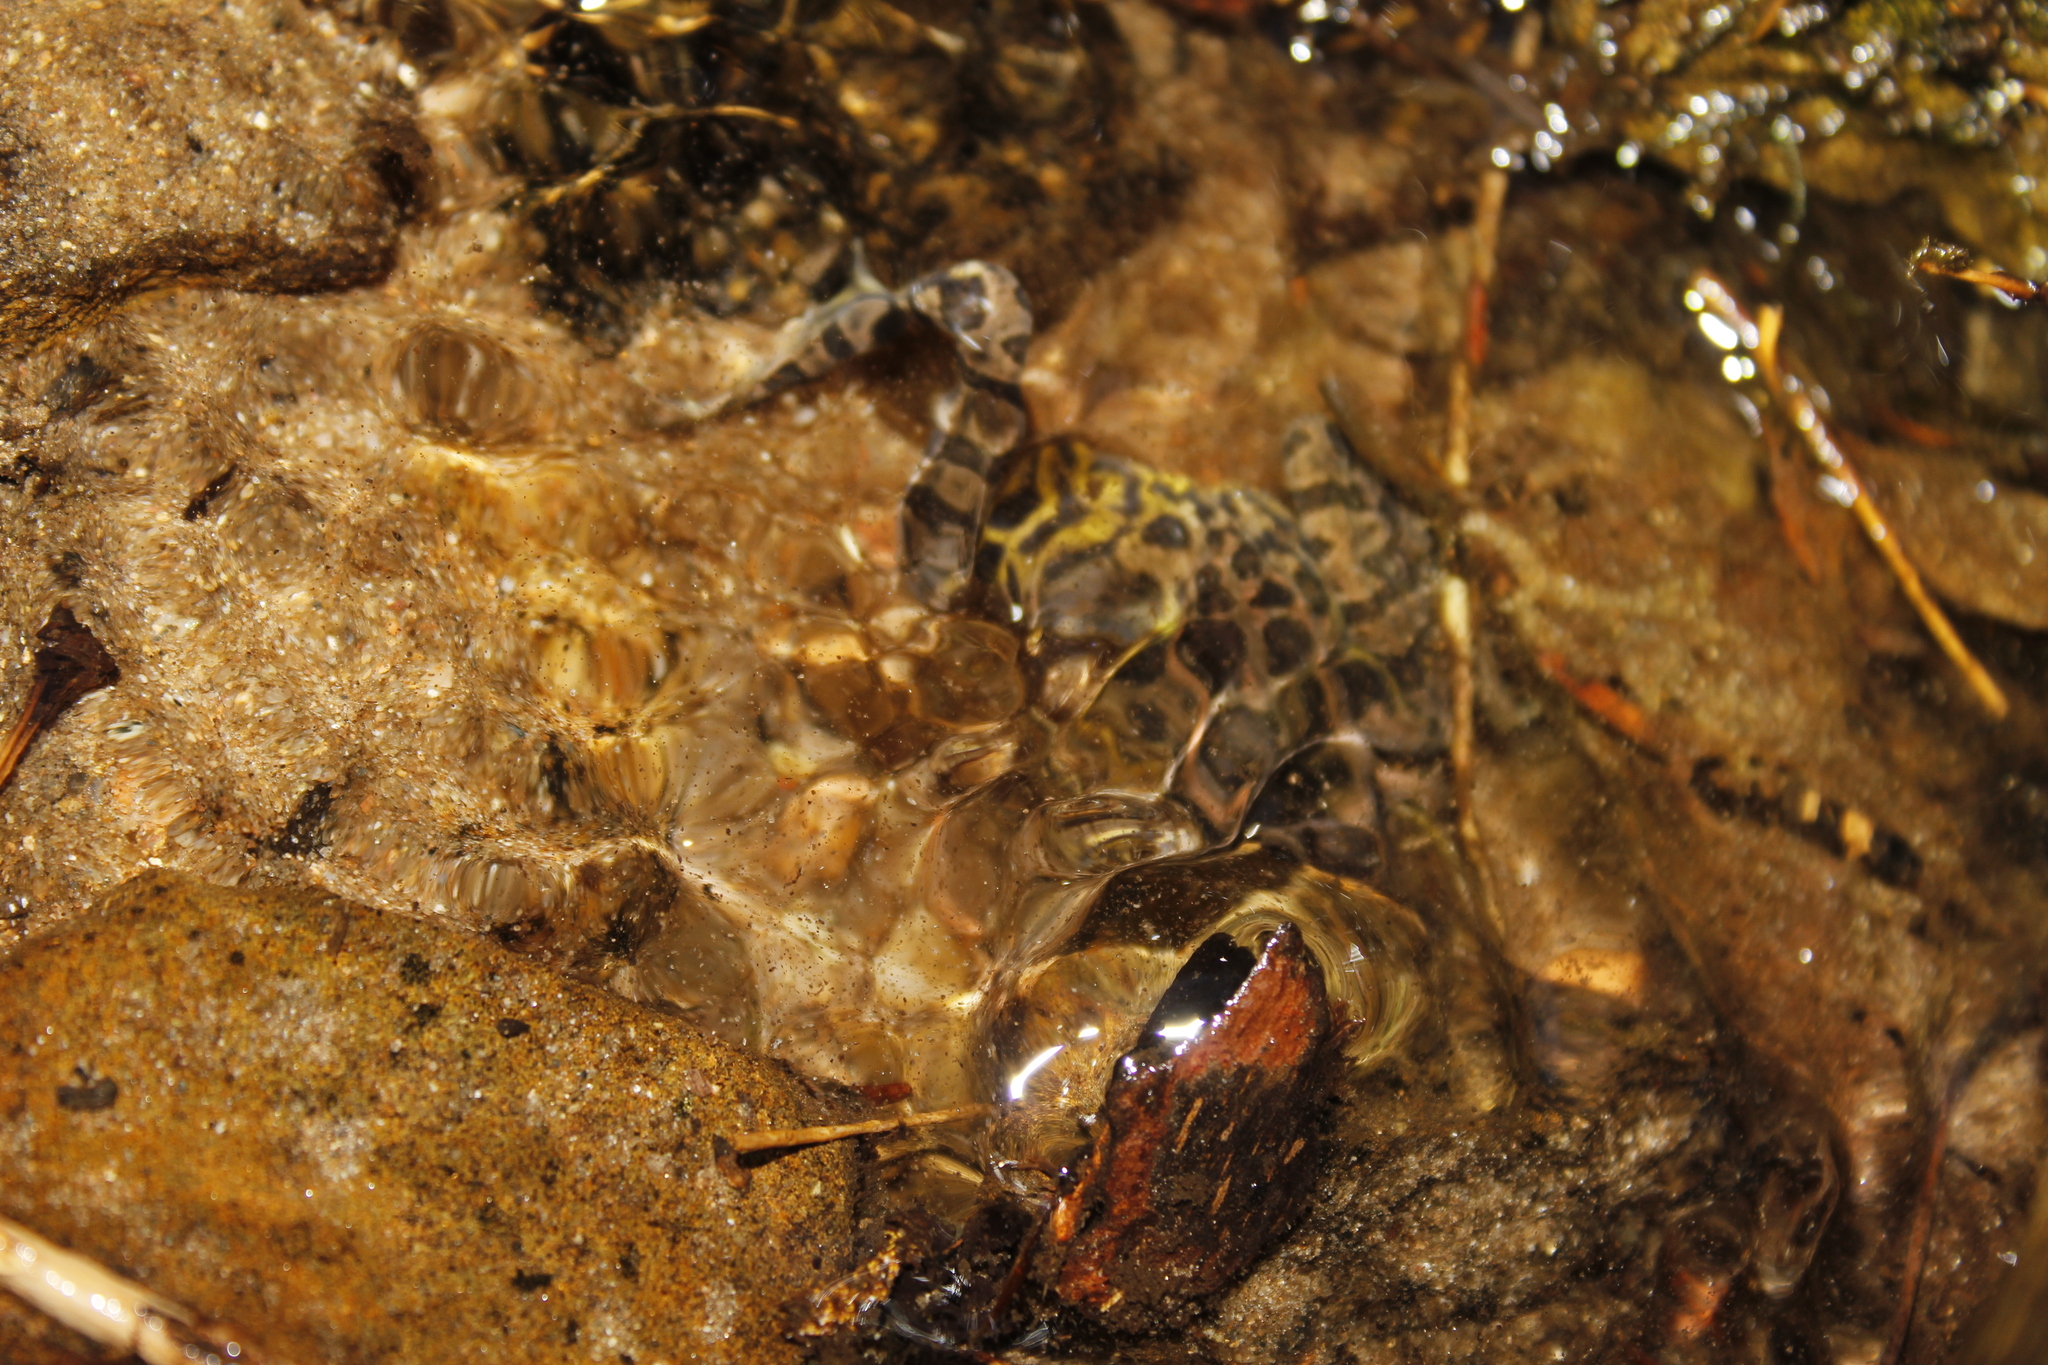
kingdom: Animalia
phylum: Chordata
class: Amphibia
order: Anura
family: Ranidae
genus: Lithobates
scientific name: Lithobates palustris
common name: Pickerel frog
